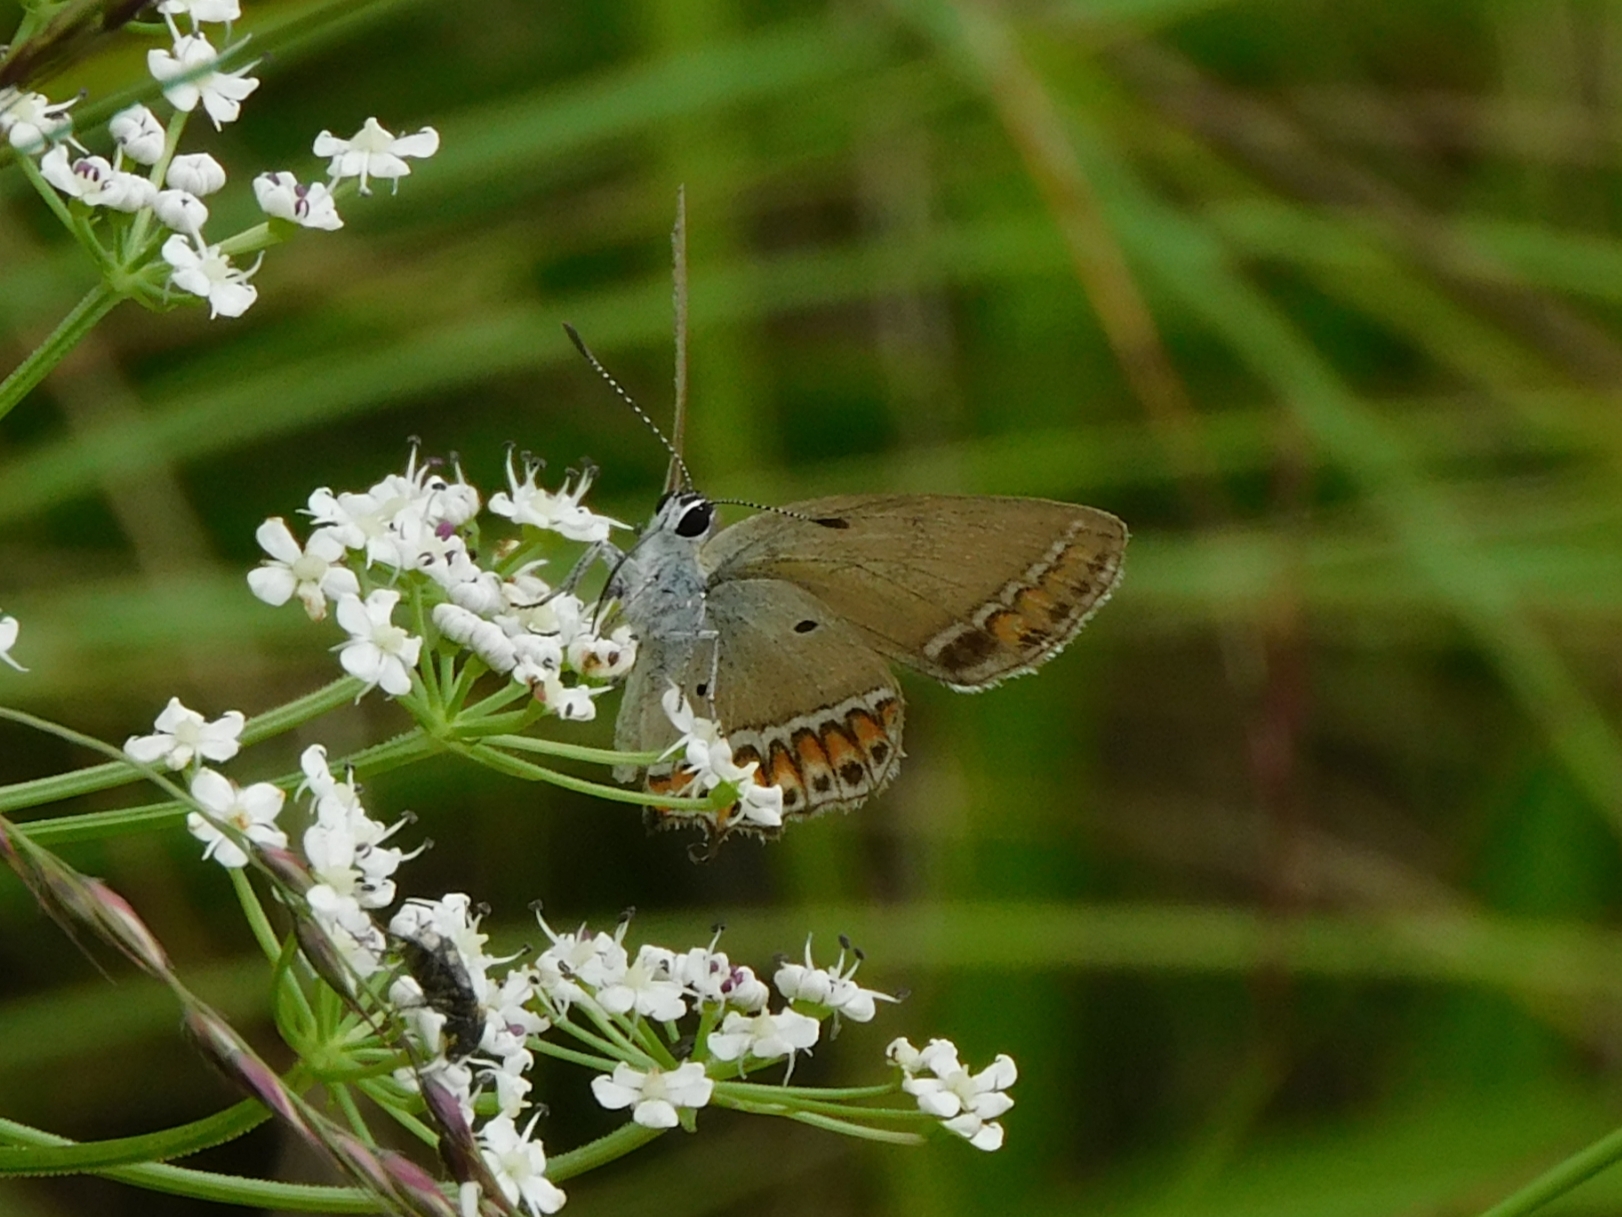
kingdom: Animalia
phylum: Arthropoda
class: Insecta
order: Lepidoptera
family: Lycaenidae
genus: Heliophorus
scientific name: Heliophorus sena
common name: Sorrel sapphire
